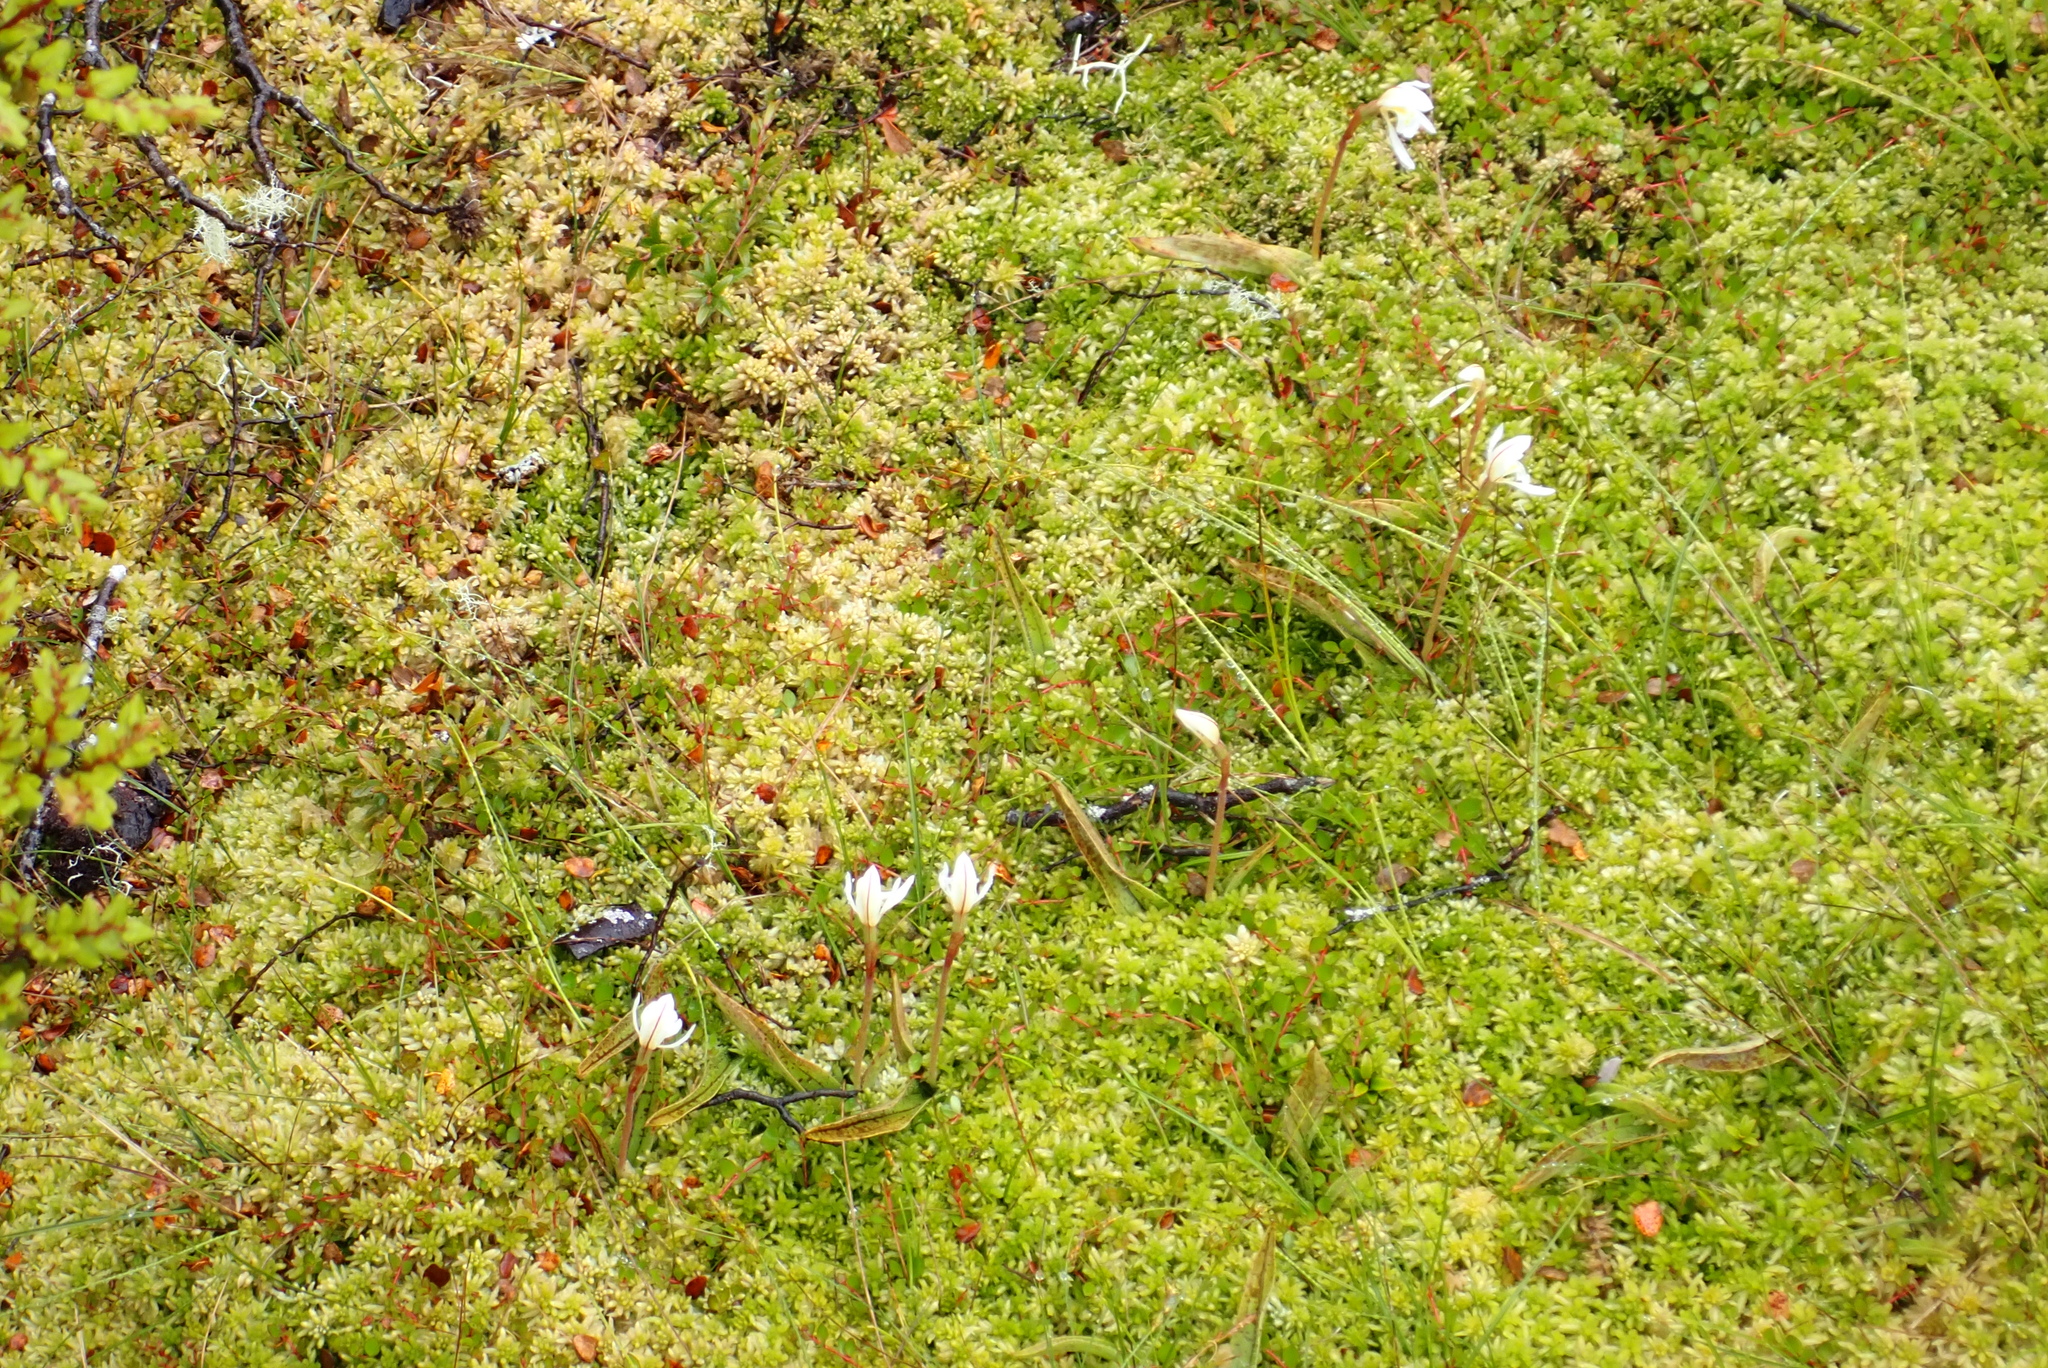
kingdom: Plantae
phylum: Tracheophyta
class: Liliopsida
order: Asparagales
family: Orchidaceae
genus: Aporostylis
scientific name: Aporostylis bifolia
